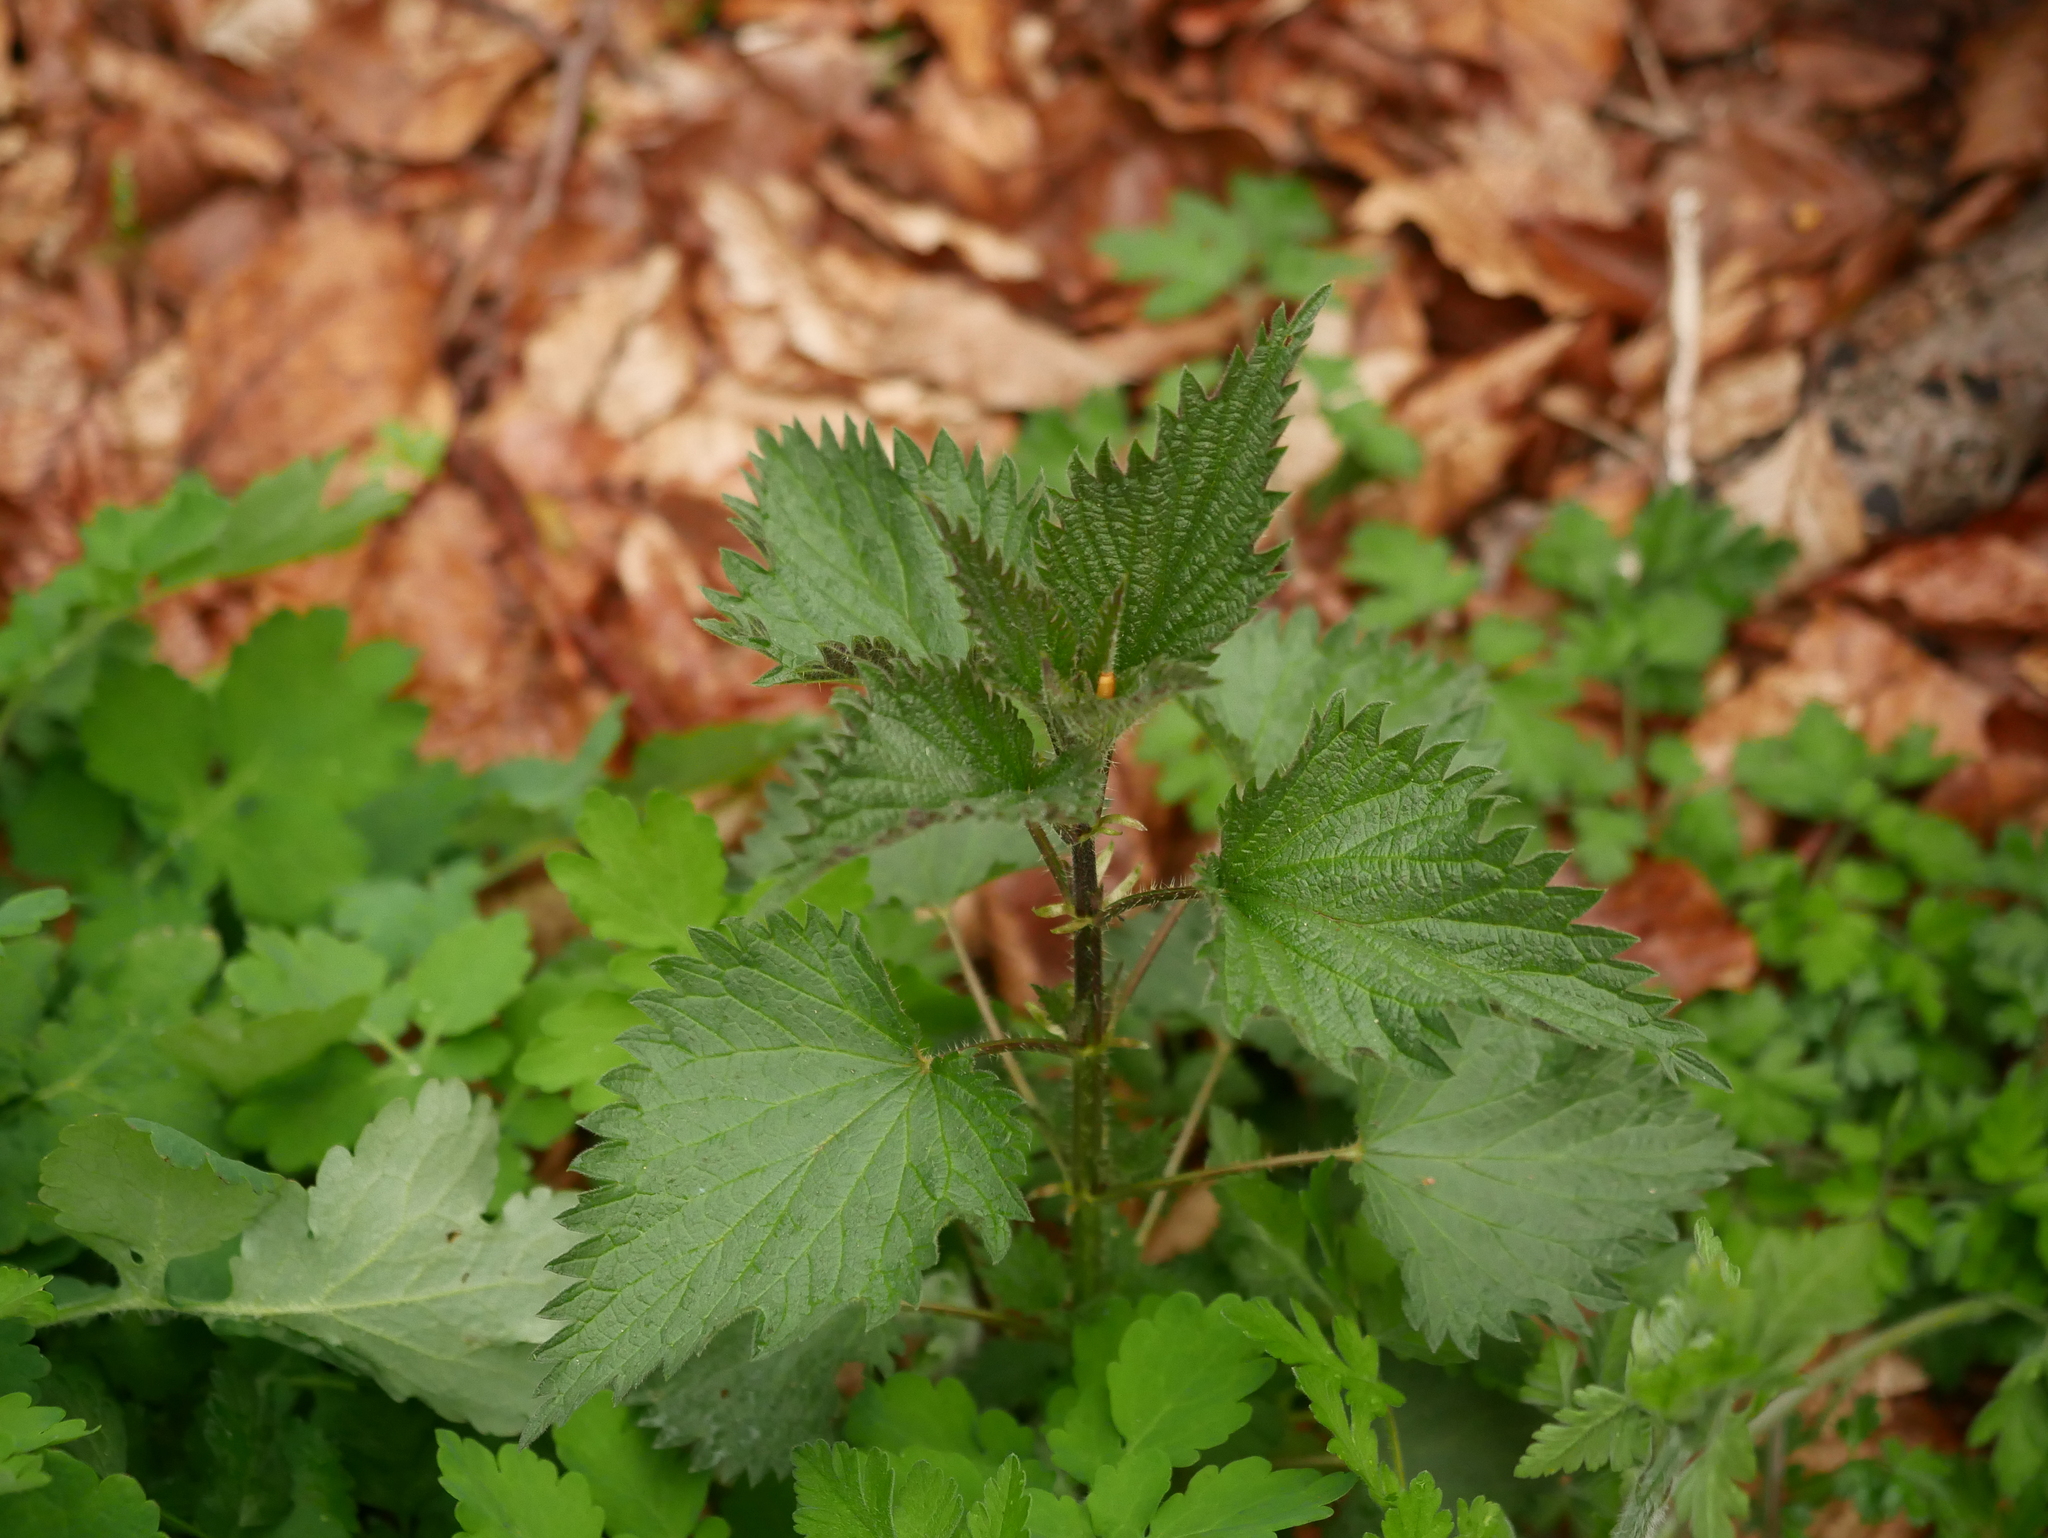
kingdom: Plantae
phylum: Tracheophyta
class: Magnoliopsida
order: Rosales
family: Urticaceae
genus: Urtica
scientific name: Urtica dioica
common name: Common nettle
